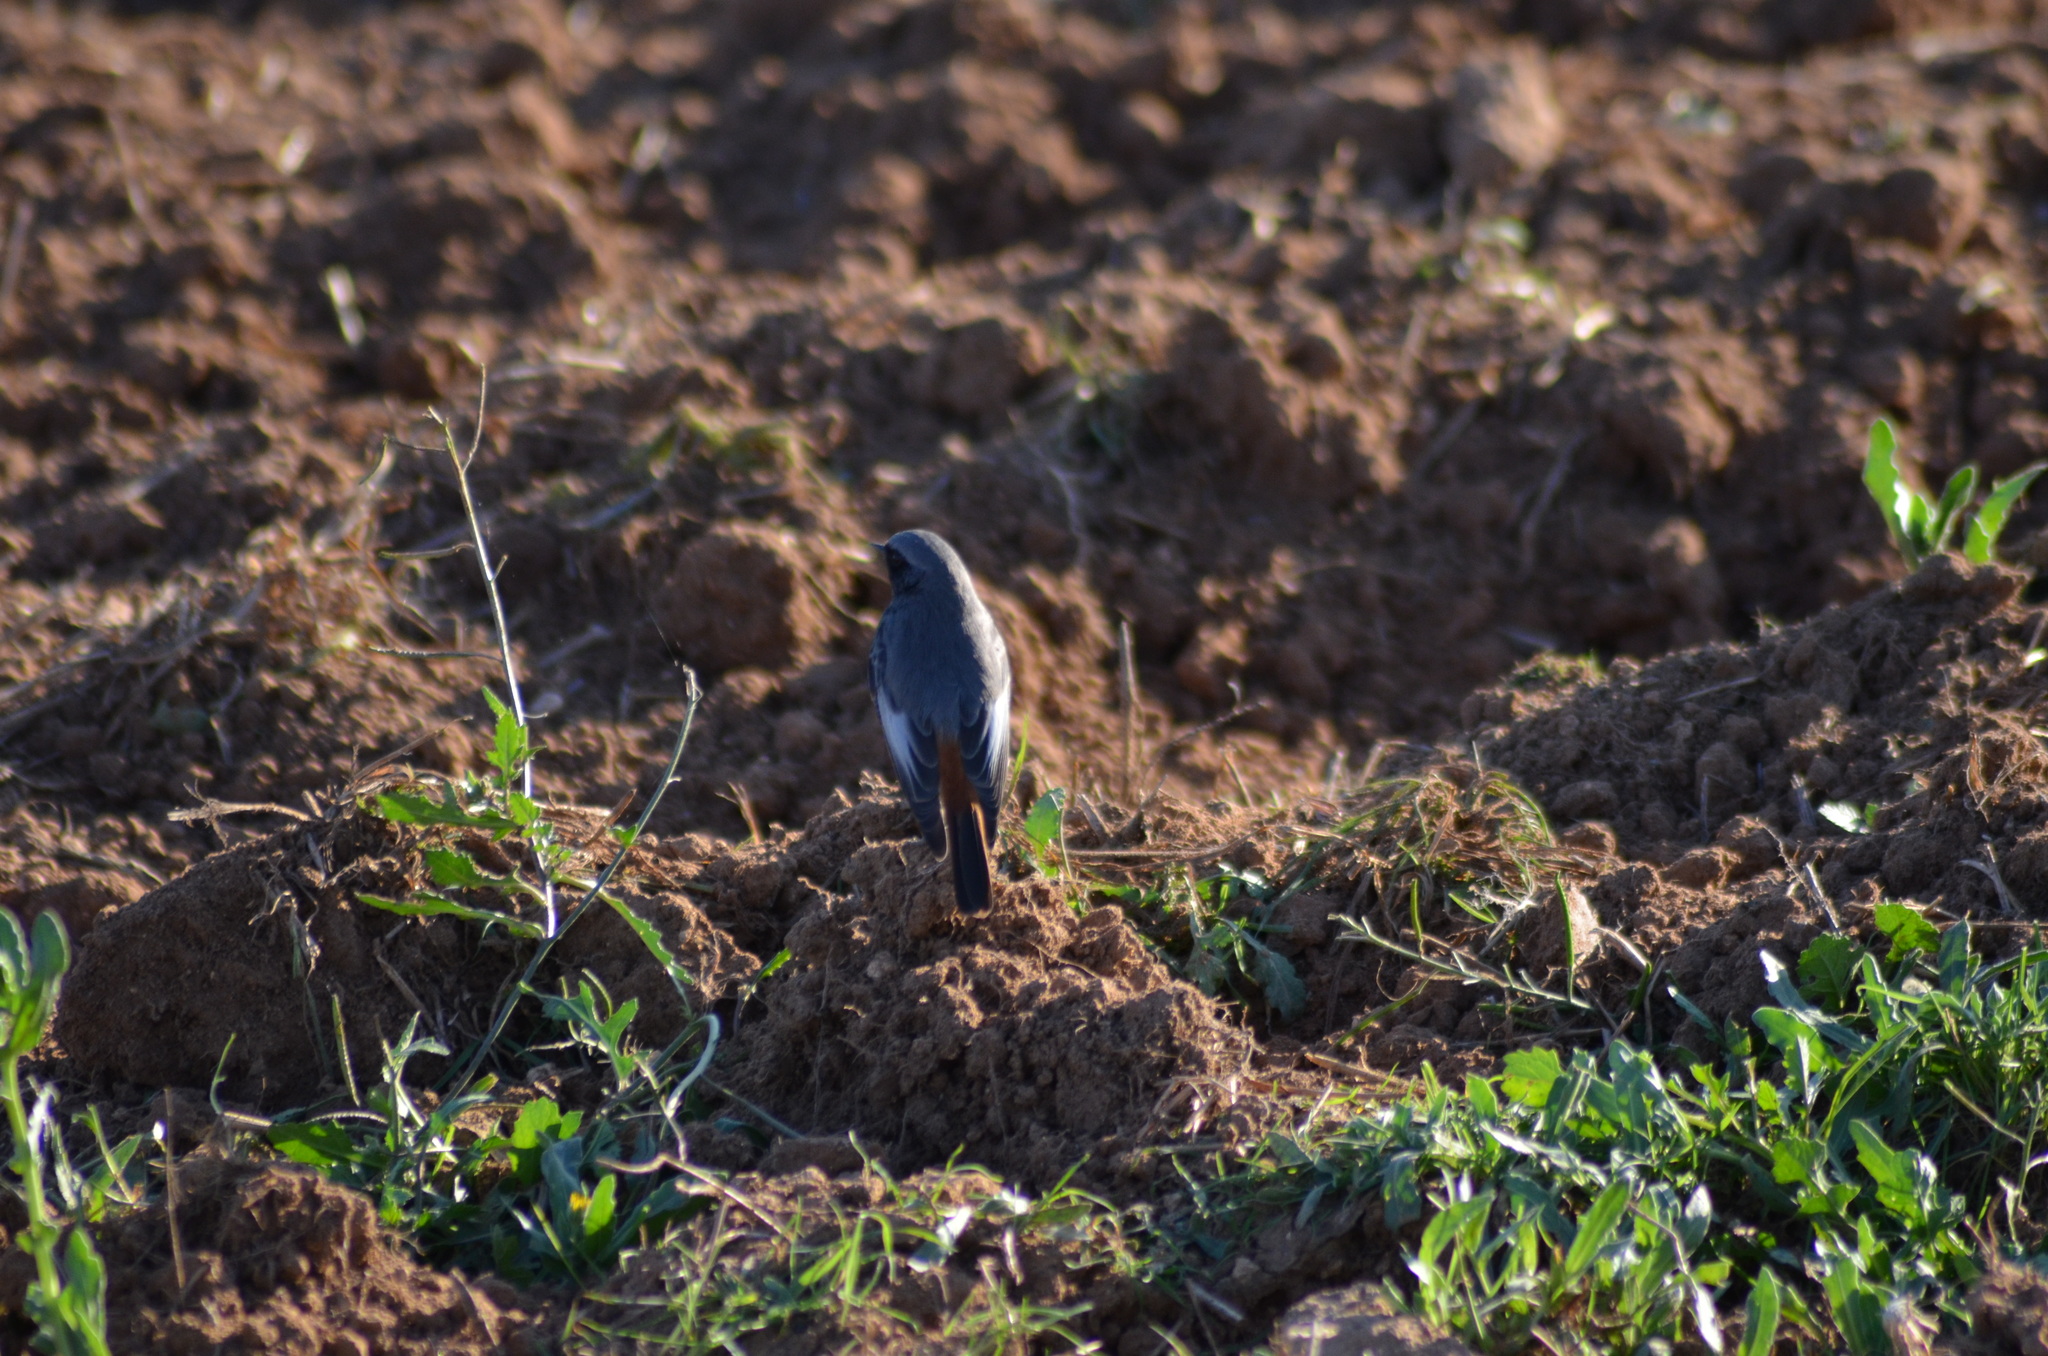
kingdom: Animalia
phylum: Chordata
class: Aves
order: Passeriformes
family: Muscicapidae
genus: Phoenicurus
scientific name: Phoenicurus ochruros
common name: Black redstart
